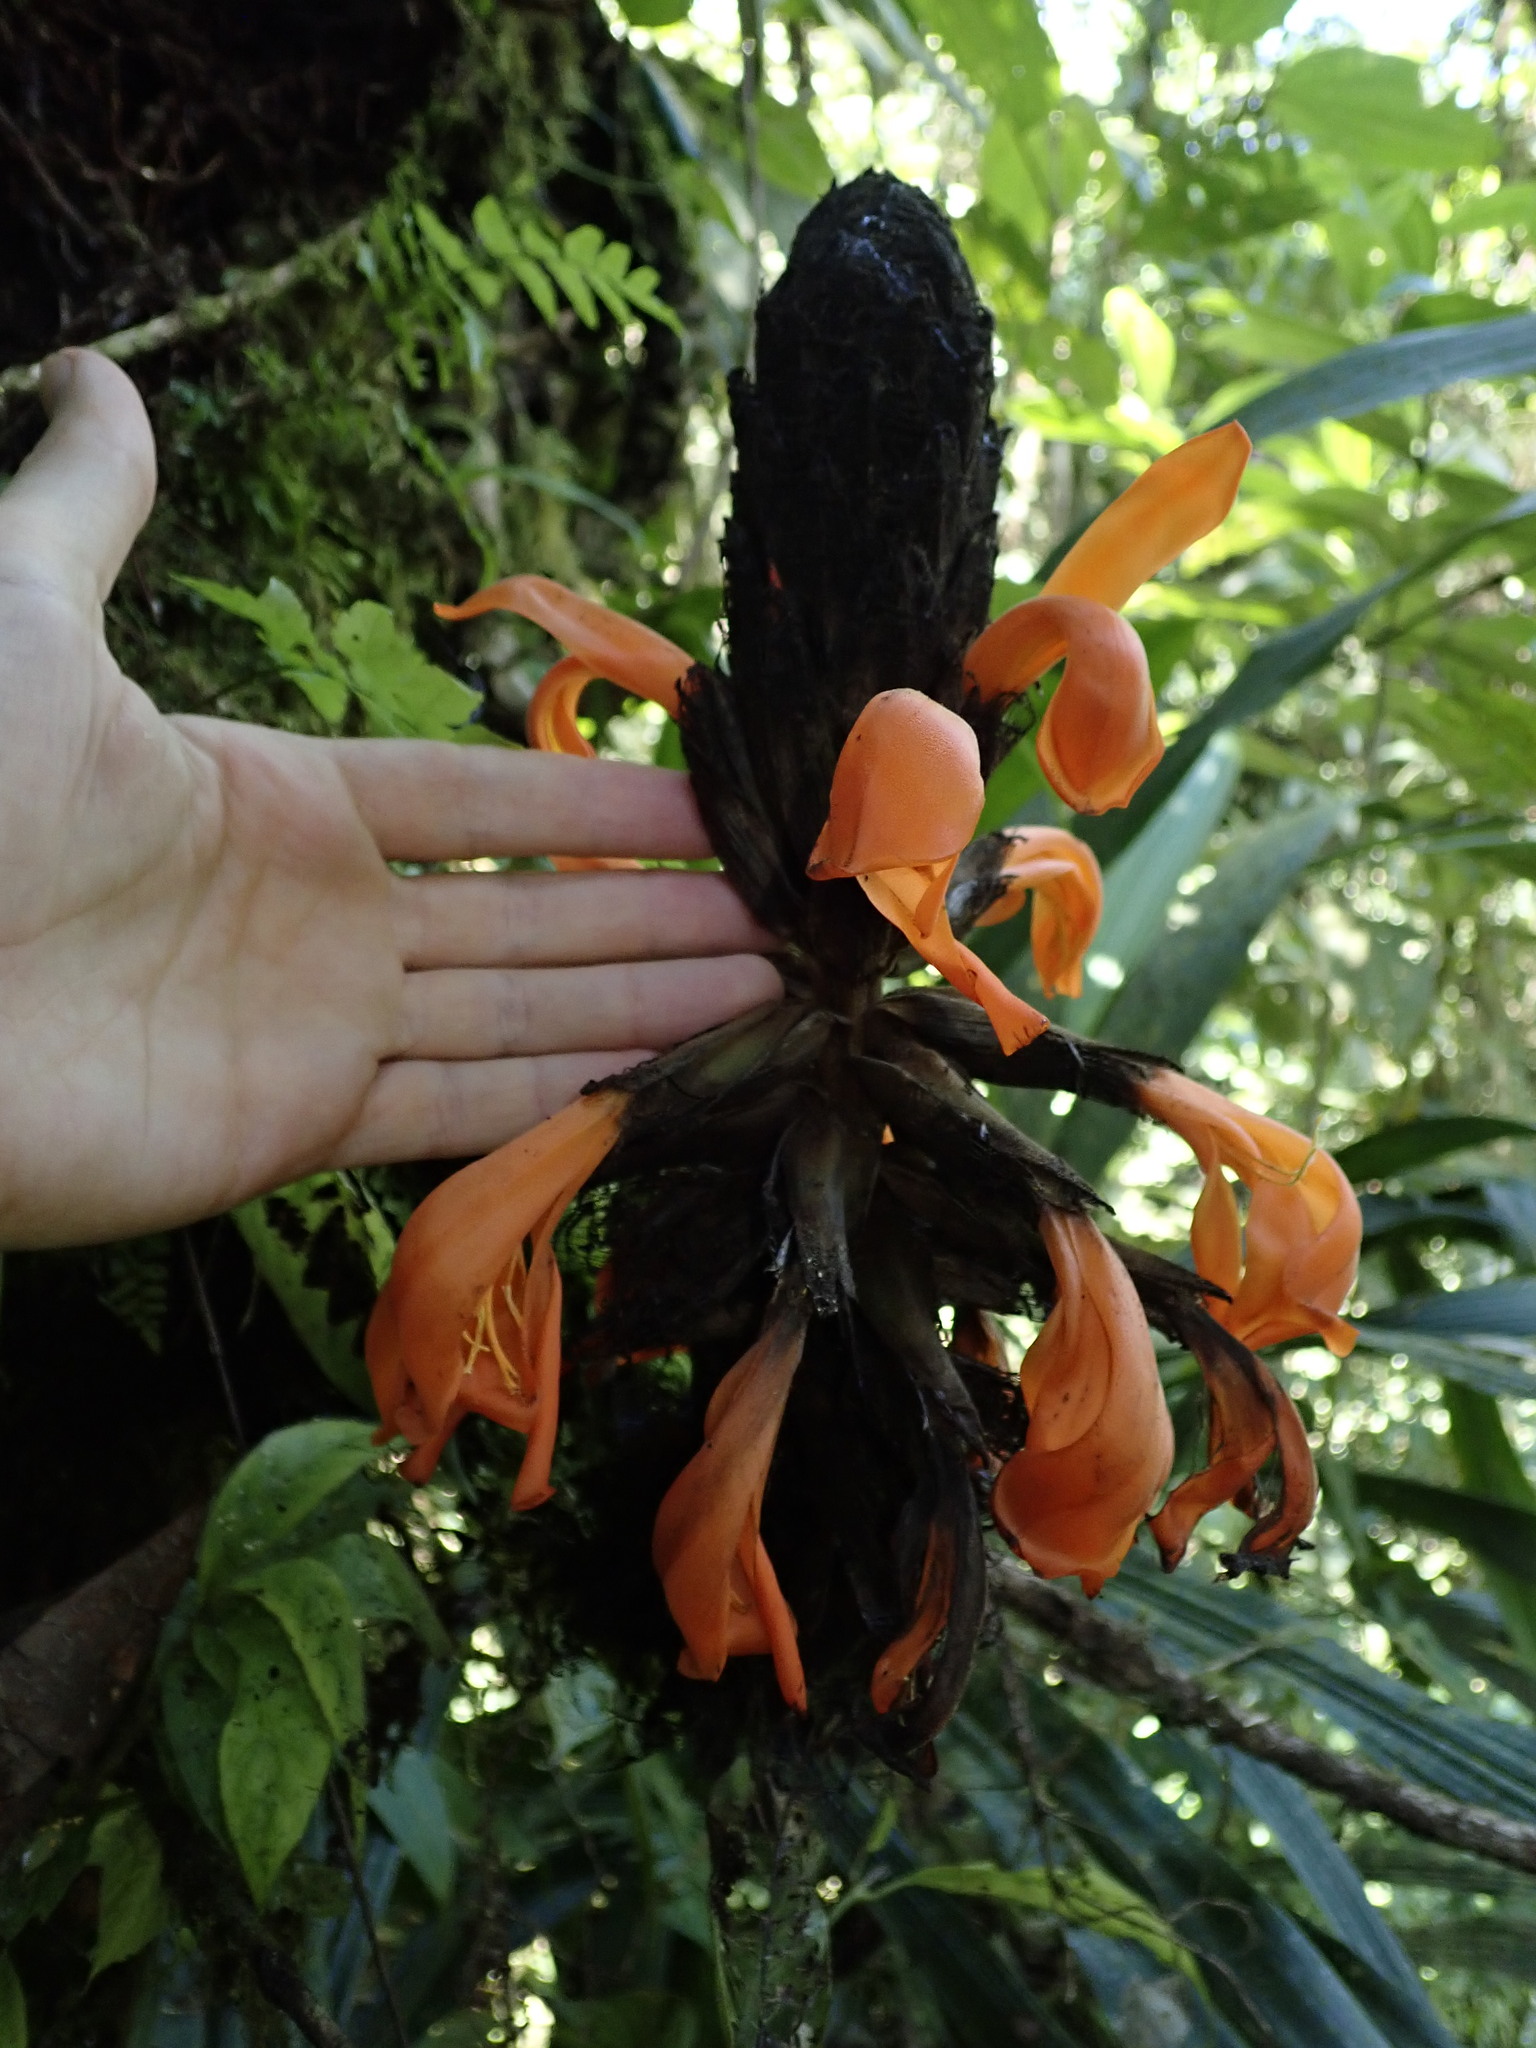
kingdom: Plantae
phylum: Tracheophyta
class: Liliopsida
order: Poales
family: Bromeliaceae
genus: Pitcairnia
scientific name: Pitcairnia bakeri
